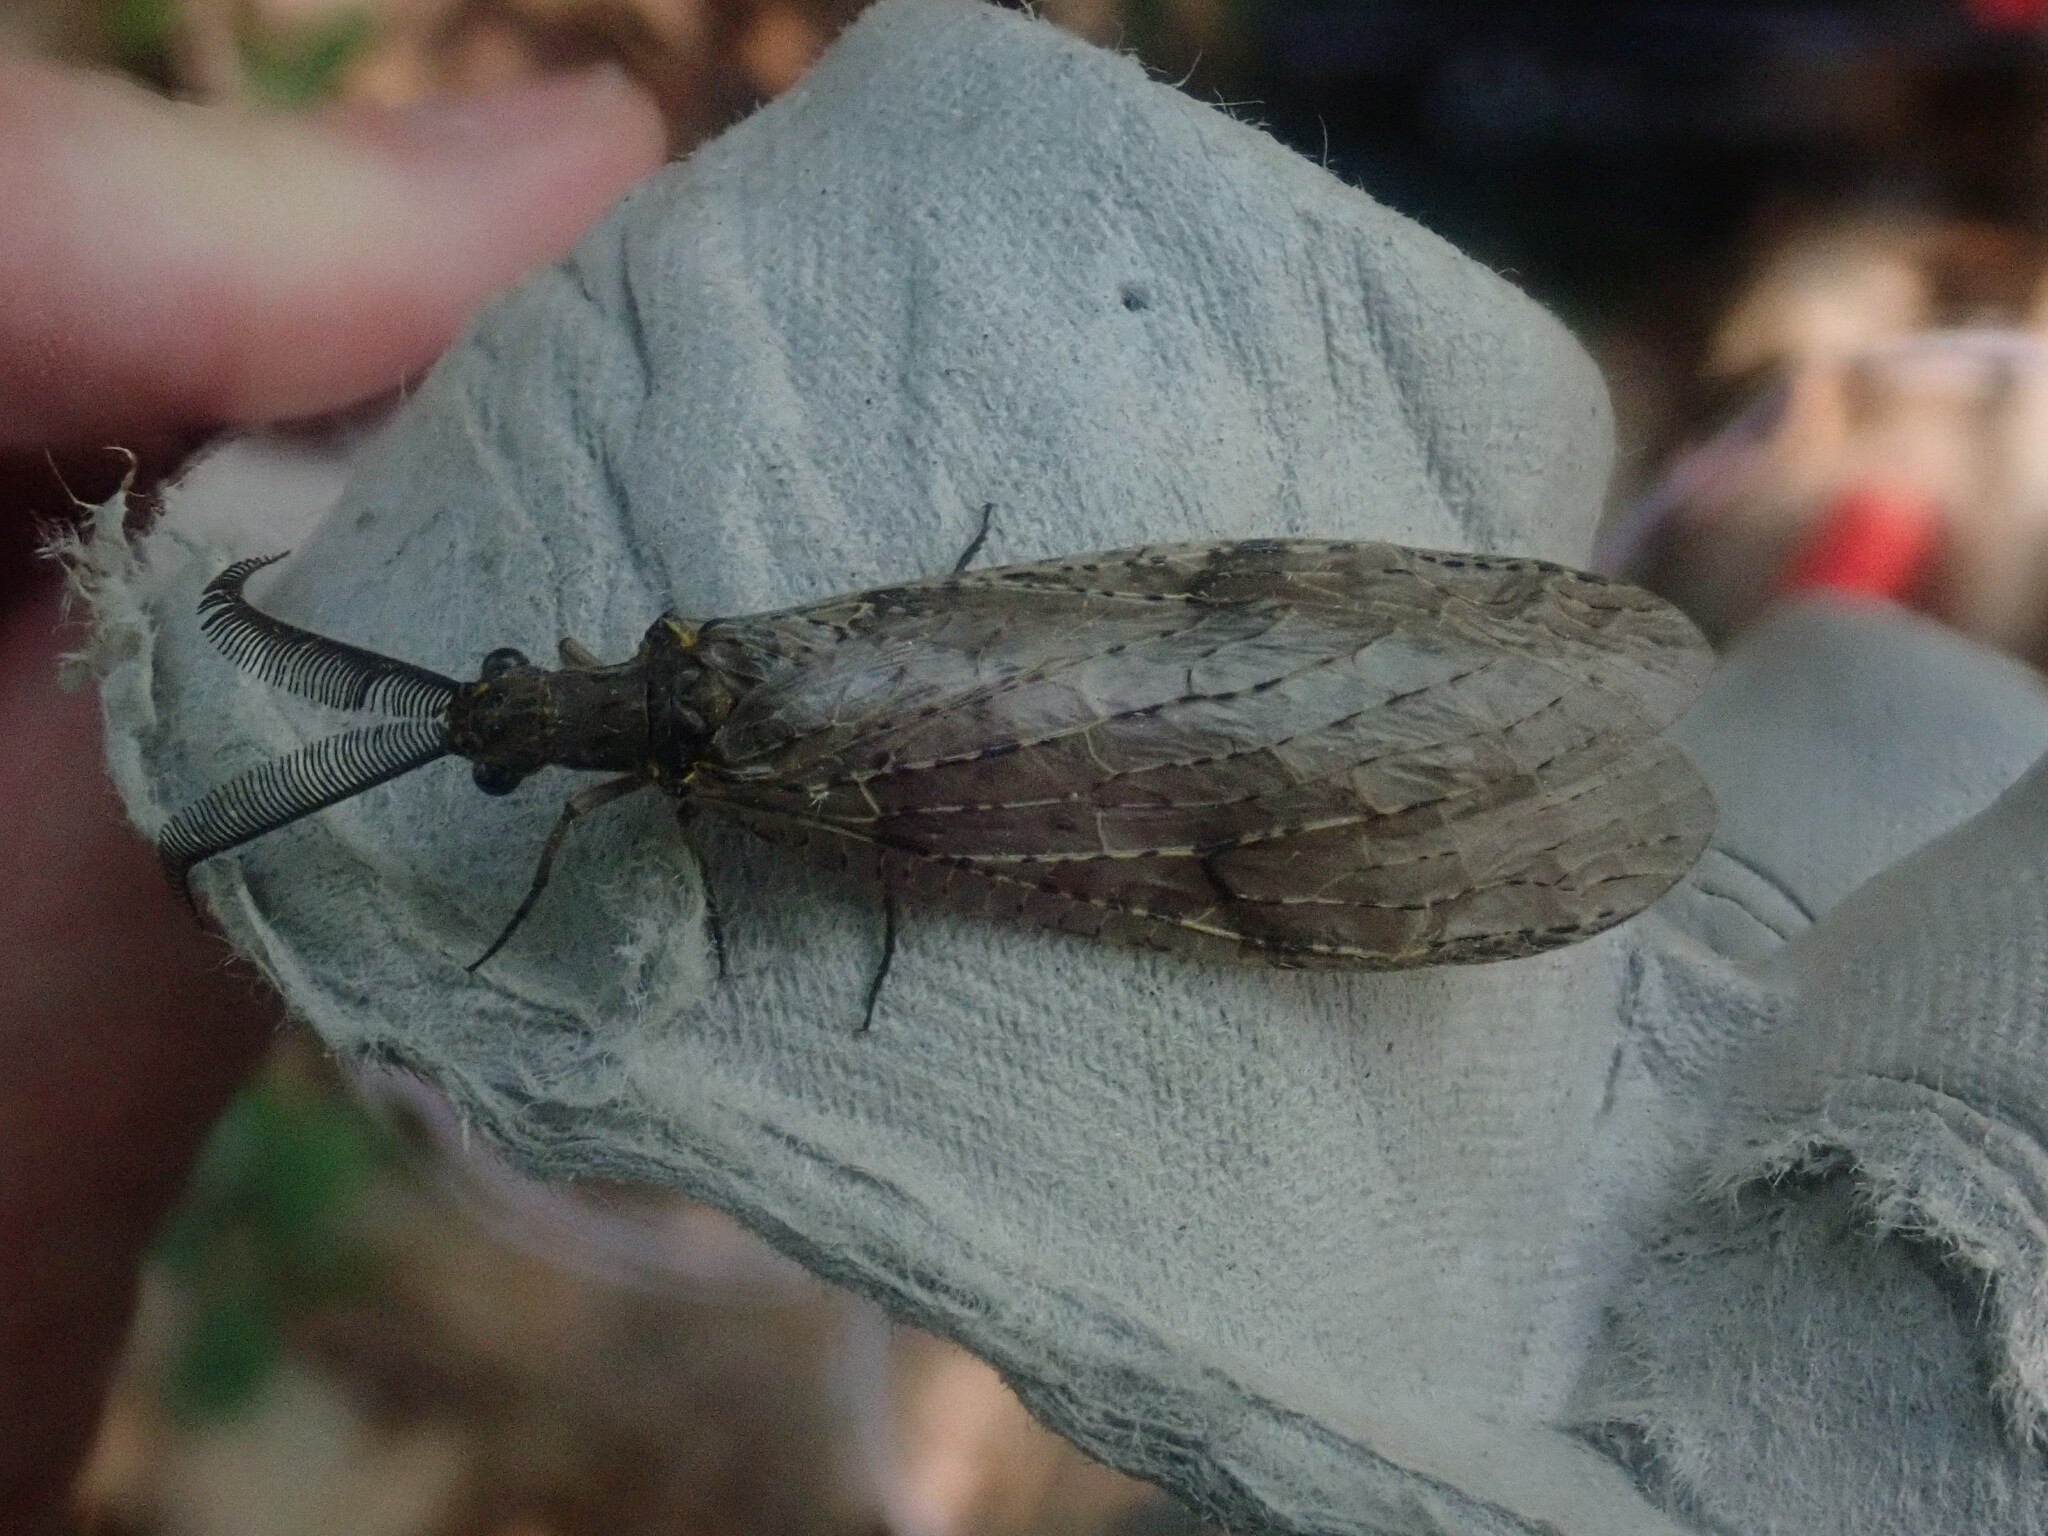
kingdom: Animalia
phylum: Arthropoda
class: Insecta
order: Megaloptera
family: Corydalidae
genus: Chauliodes
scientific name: Chauliodes rastricornis
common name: Spring fishfly
